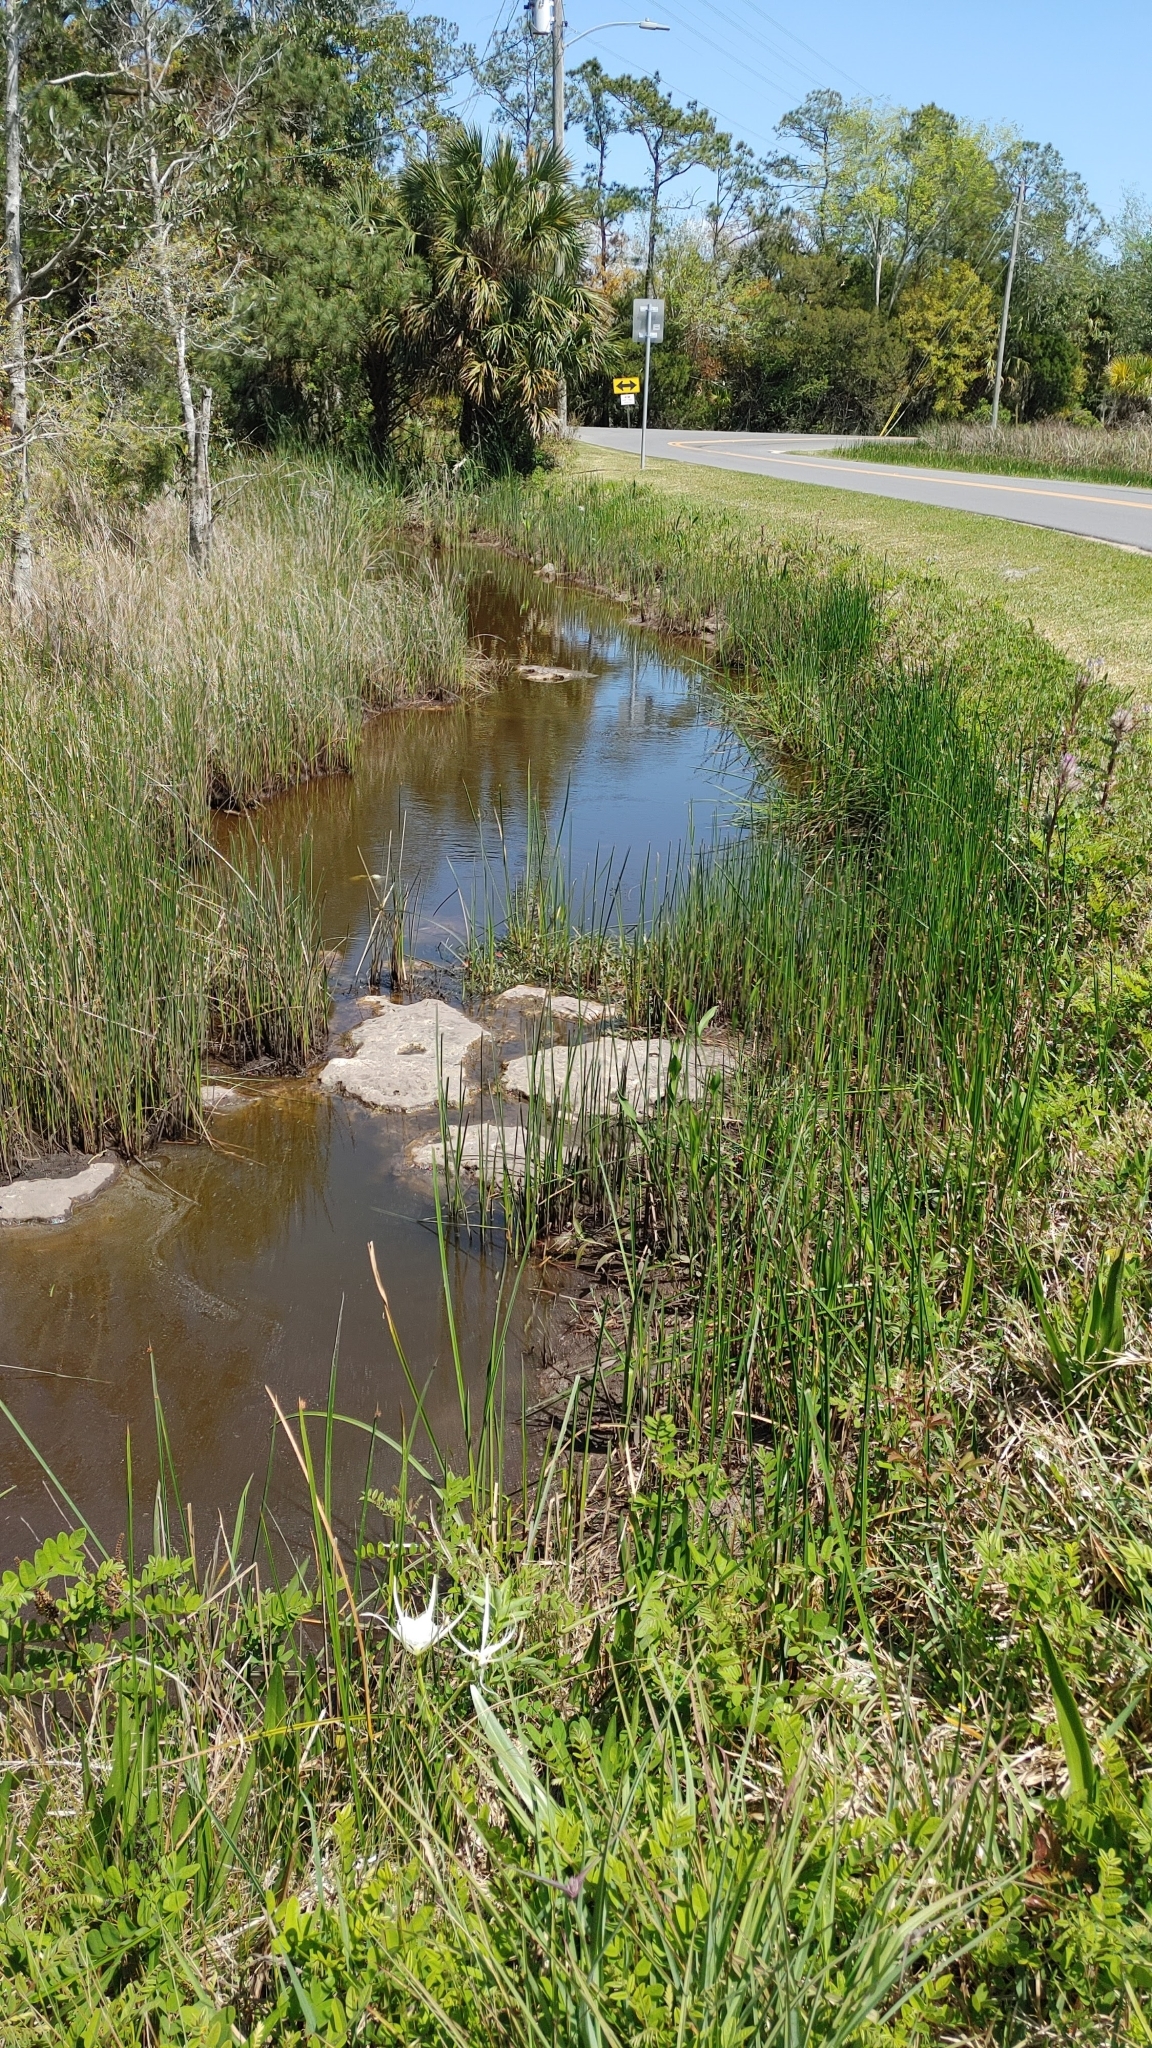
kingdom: Plantae
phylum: Tracheophyta
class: Liliopsida
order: Asparagales
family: Amaryllidaceae
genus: Hymenocallis
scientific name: Hymenocallis godfreyi
